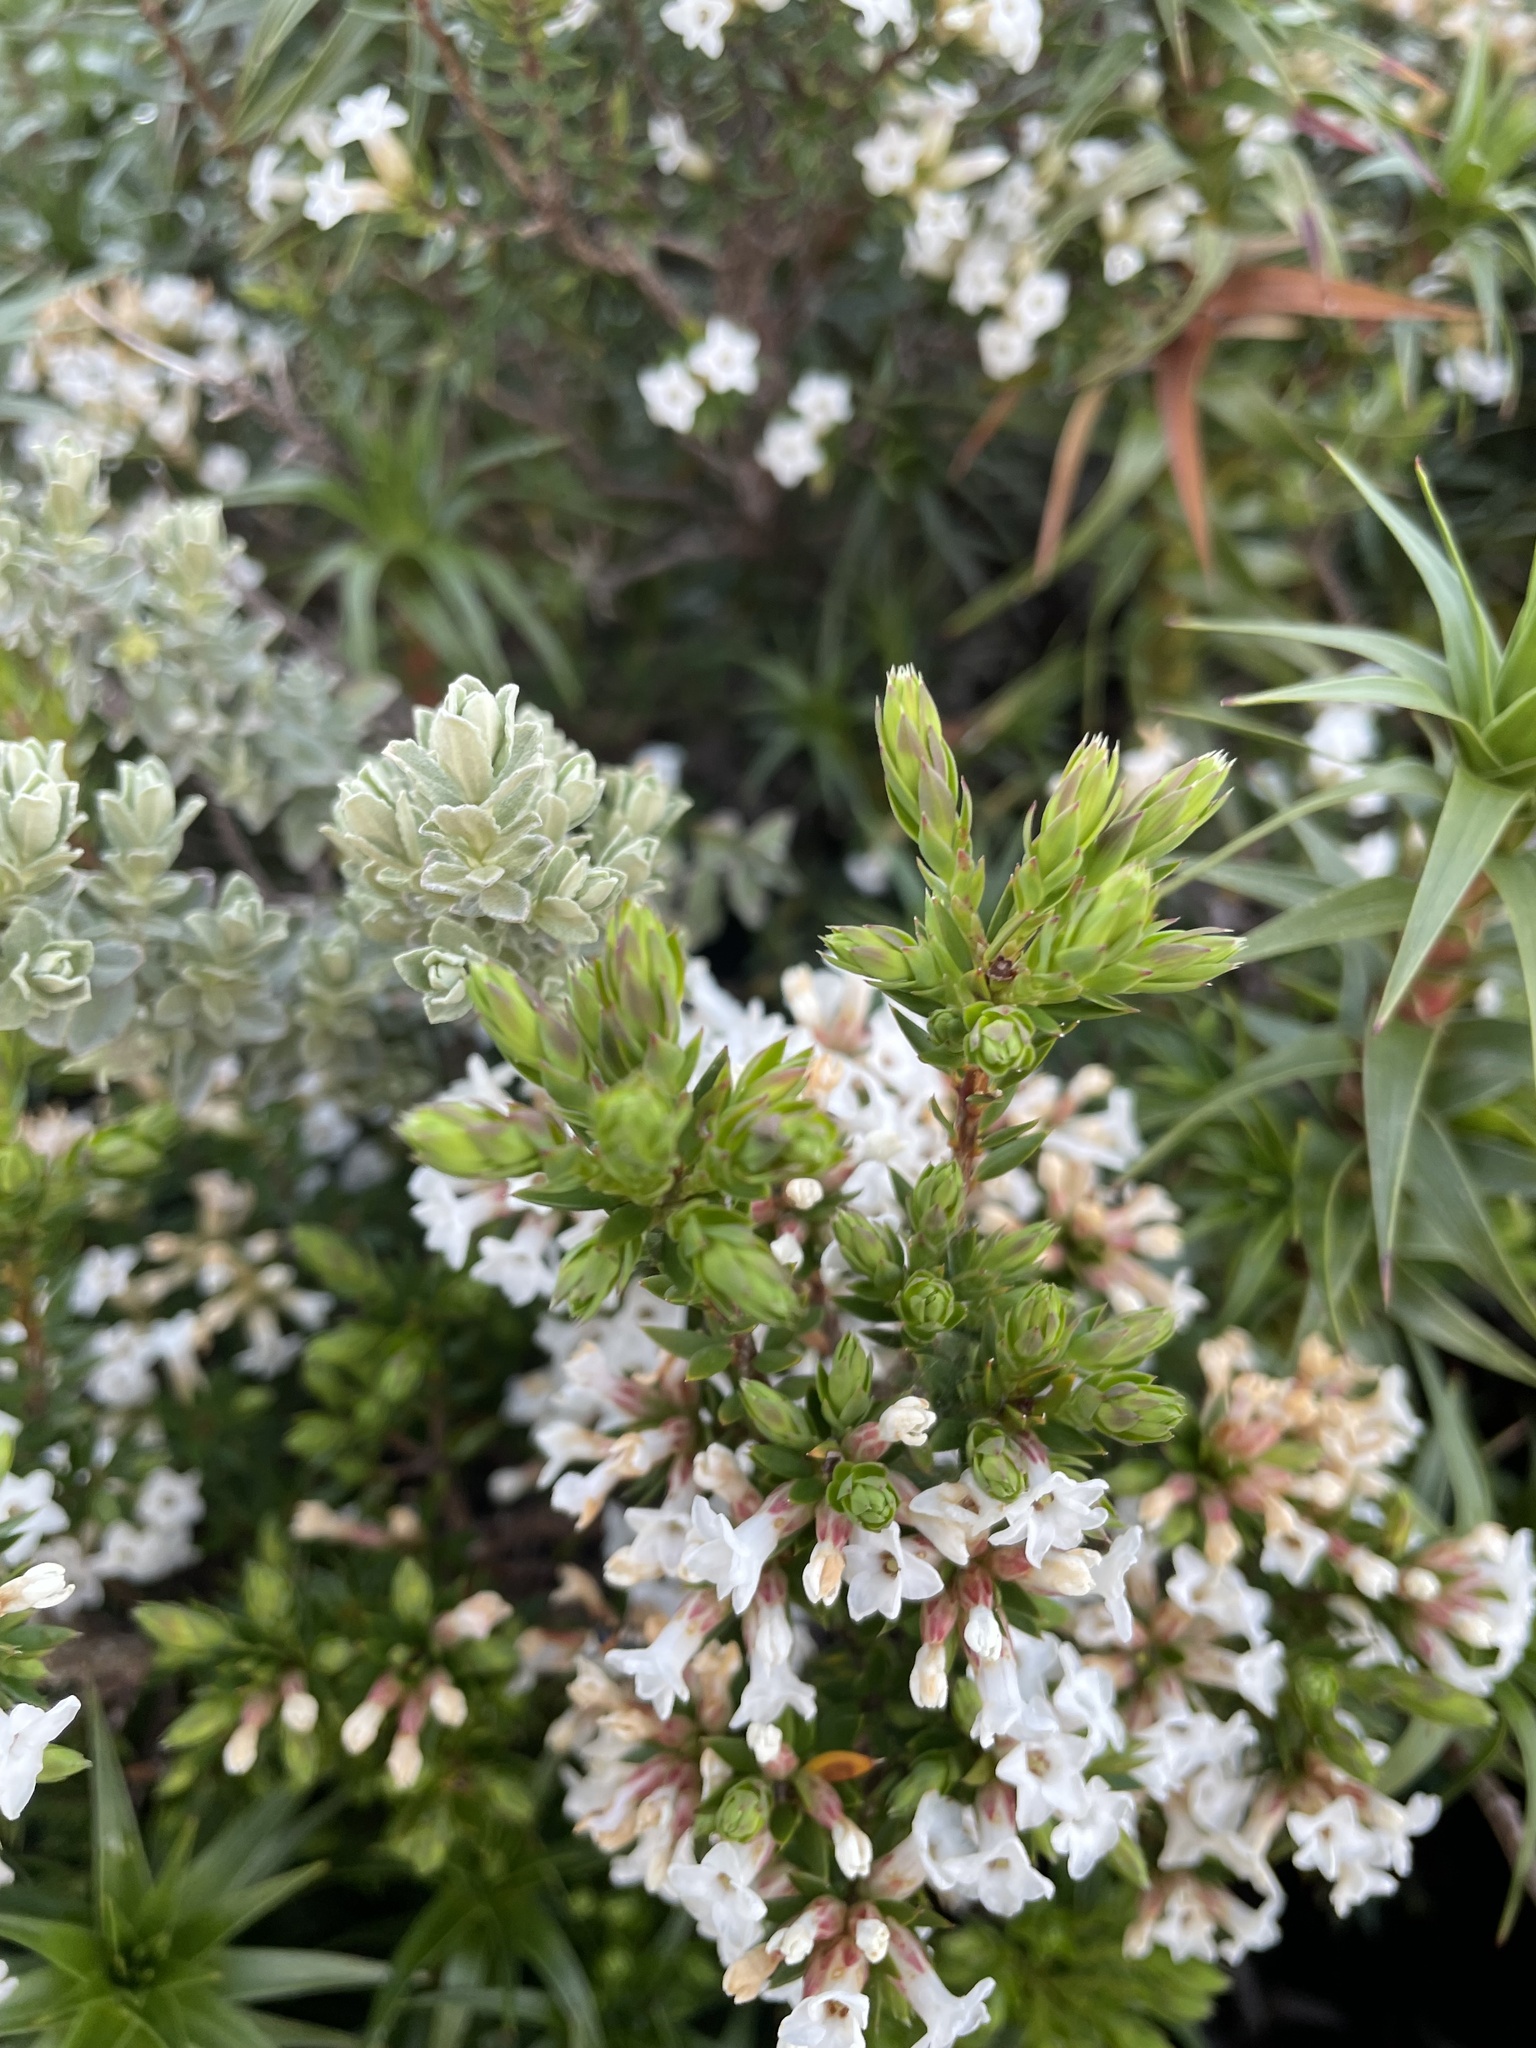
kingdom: Plantae
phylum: Tracheophyta
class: Magnoliopsida
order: Ericales
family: Ericaceae
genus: Epacris
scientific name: Epacris paludosa
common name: Swamp-heath
